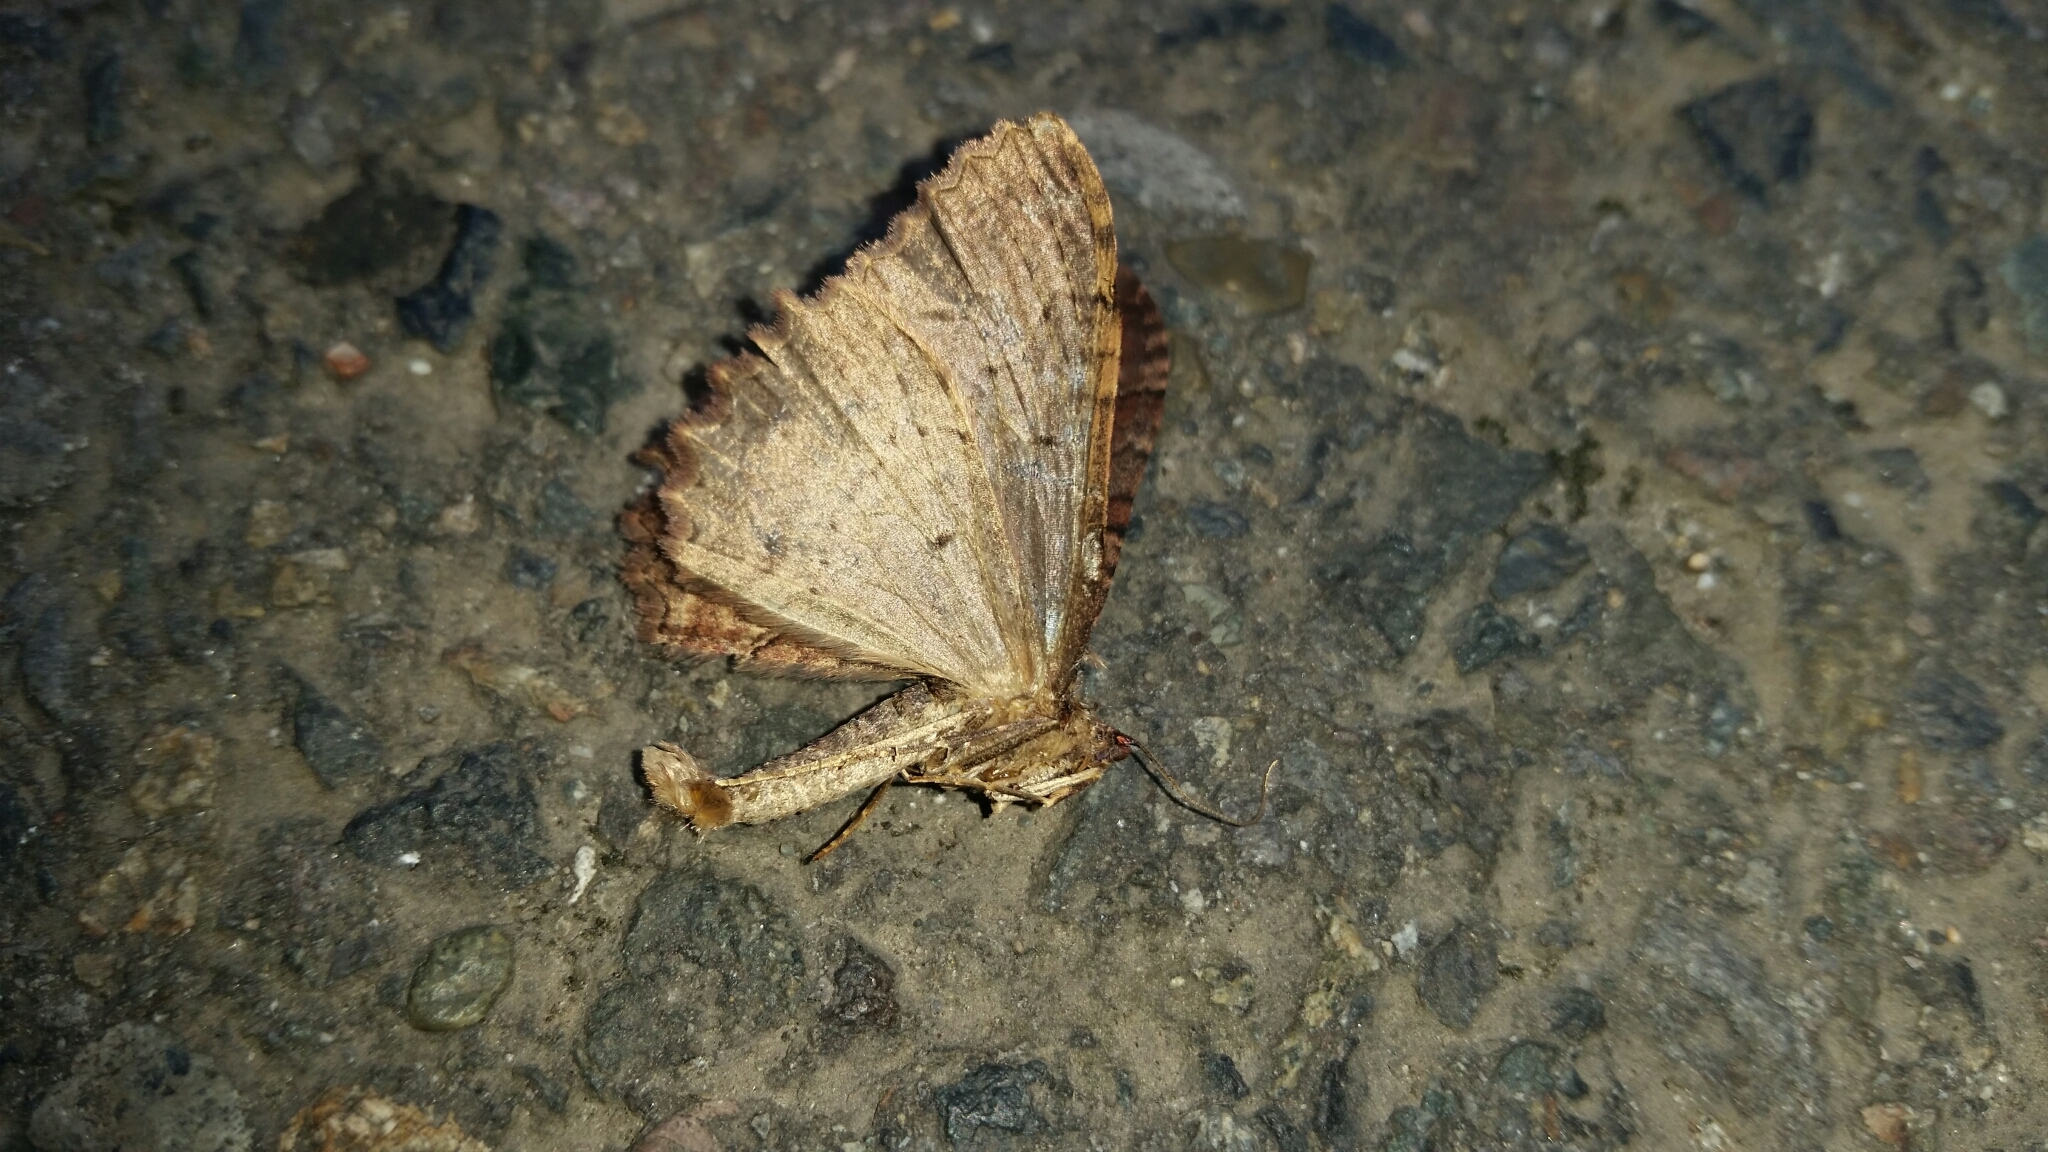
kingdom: Animalia
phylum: Arthropoda
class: Insecta
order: Lepidoptera
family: Geometridae
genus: Triphosa
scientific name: Triphosa haesitata
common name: Tissue moth
